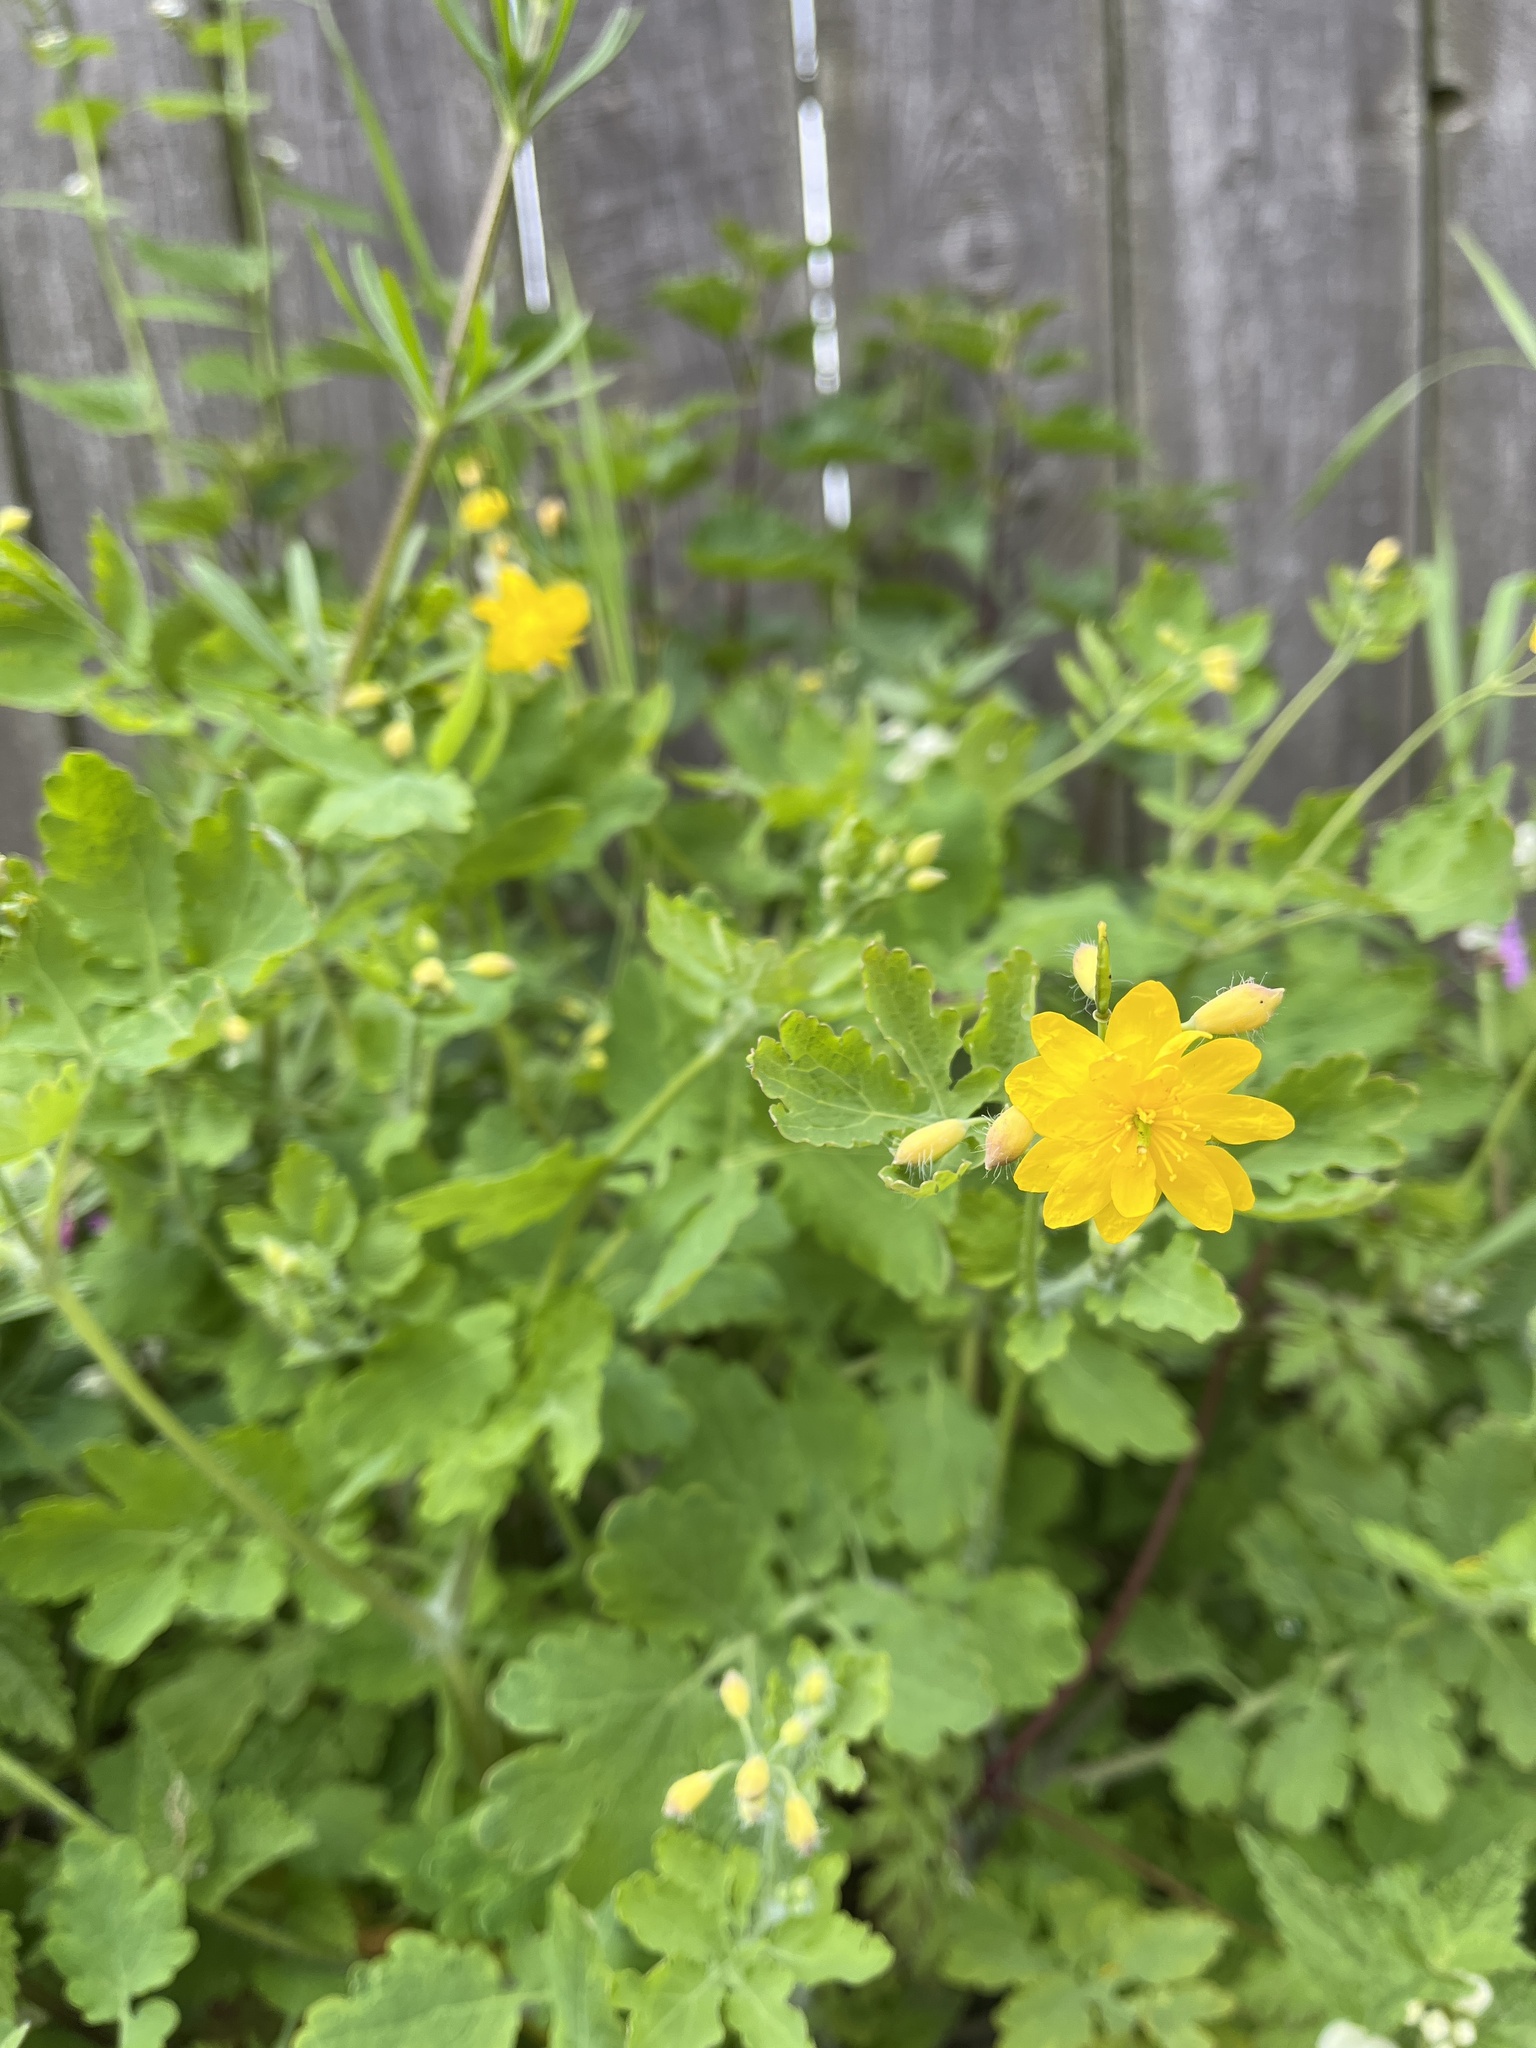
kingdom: Plantae
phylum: Tracheophyta
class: Magnoliopsida
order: Ranunculales
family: Papaveraceae
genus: Chelidonium
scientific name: Chelidonium majus
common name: Greater celandine
